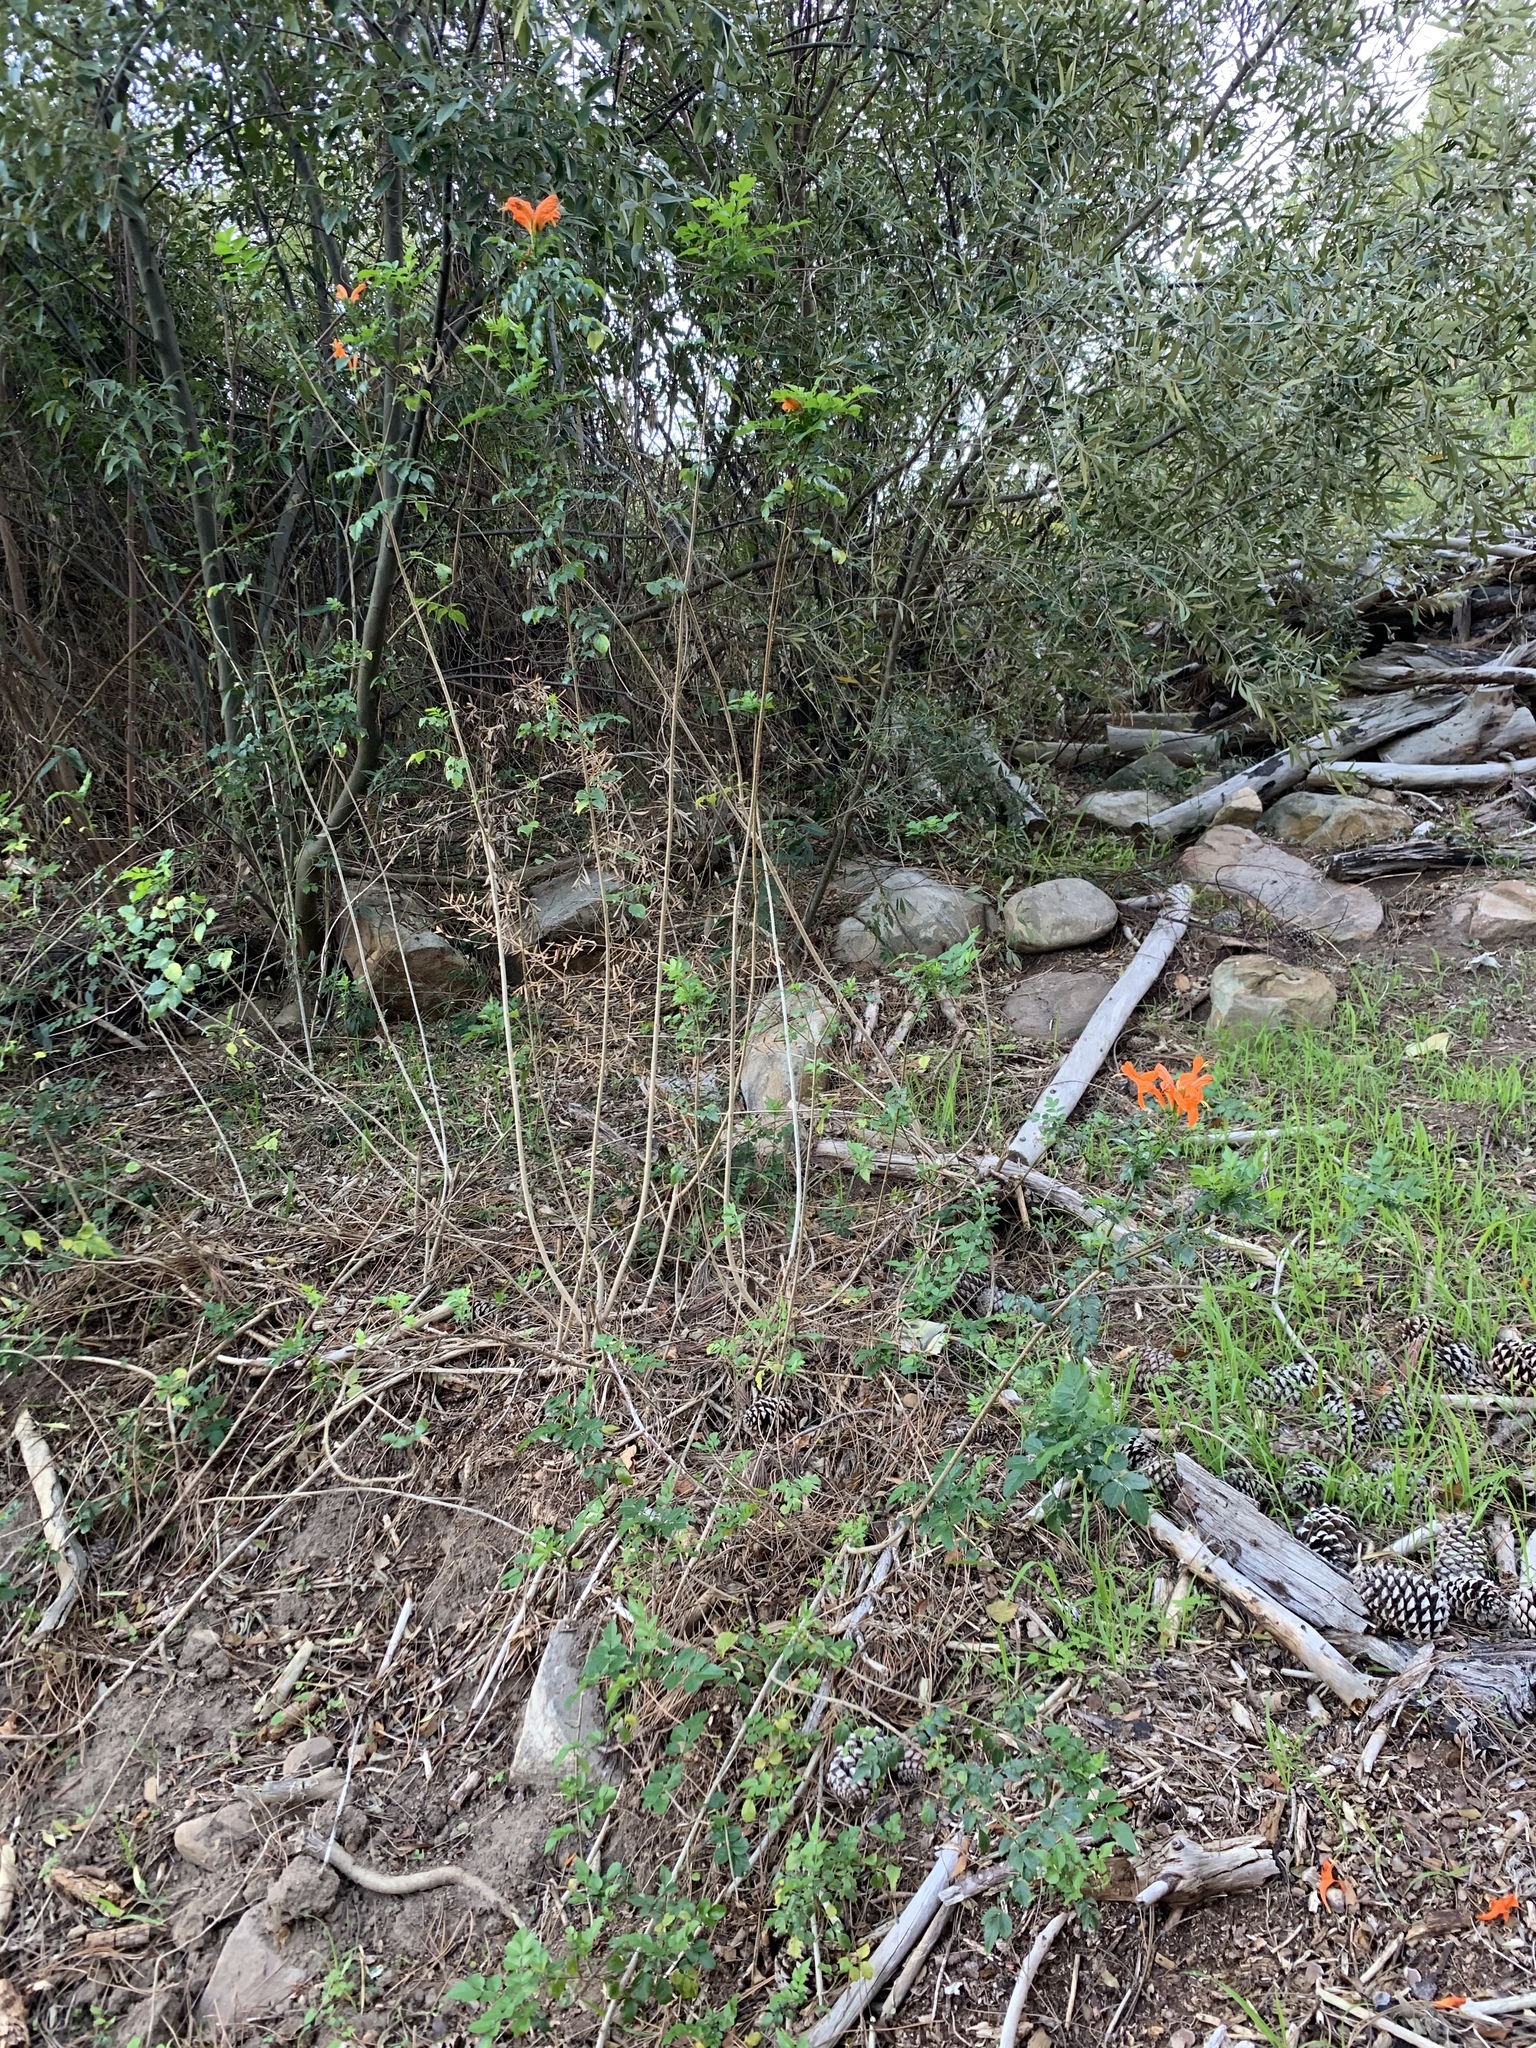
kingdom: Plantae
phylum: Tracheophyta
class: Magnoliopsida
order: Lamiales
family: Bignoniaceae
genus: Tecomaria
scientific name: Tecomaria capensis
